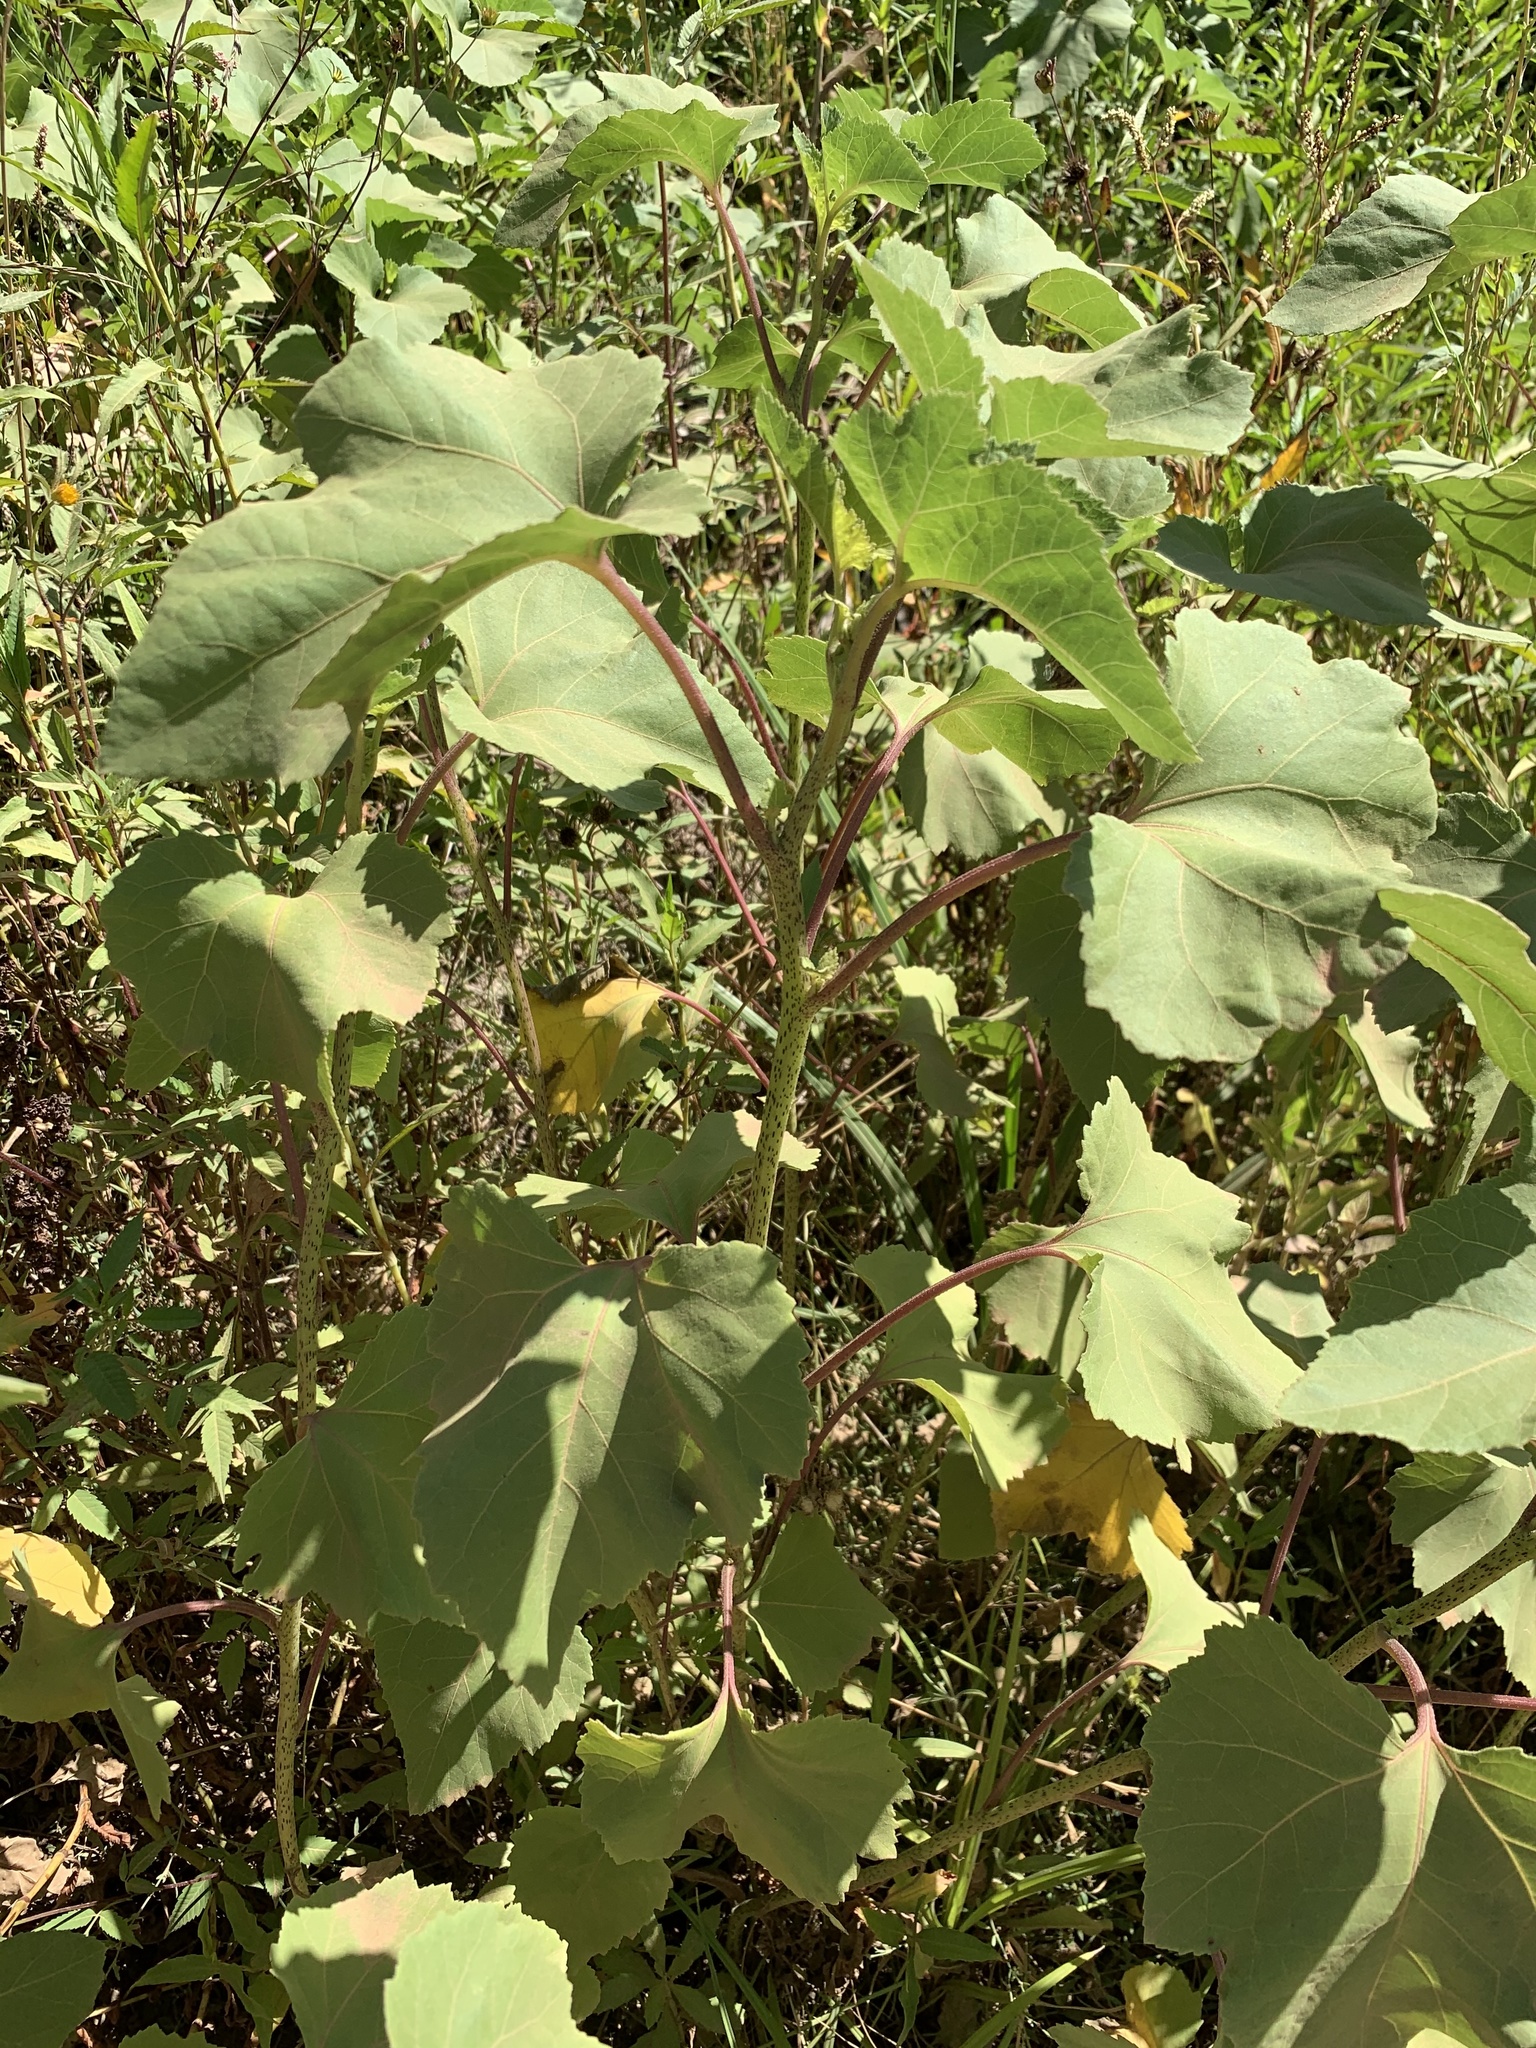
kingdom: Plantae
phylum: Tracheophyta
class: Magnoliopsida
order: Asterales
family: Asteraceae
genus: Xanthium
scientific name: Xanthium strumarium
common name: Rough cocklebur
